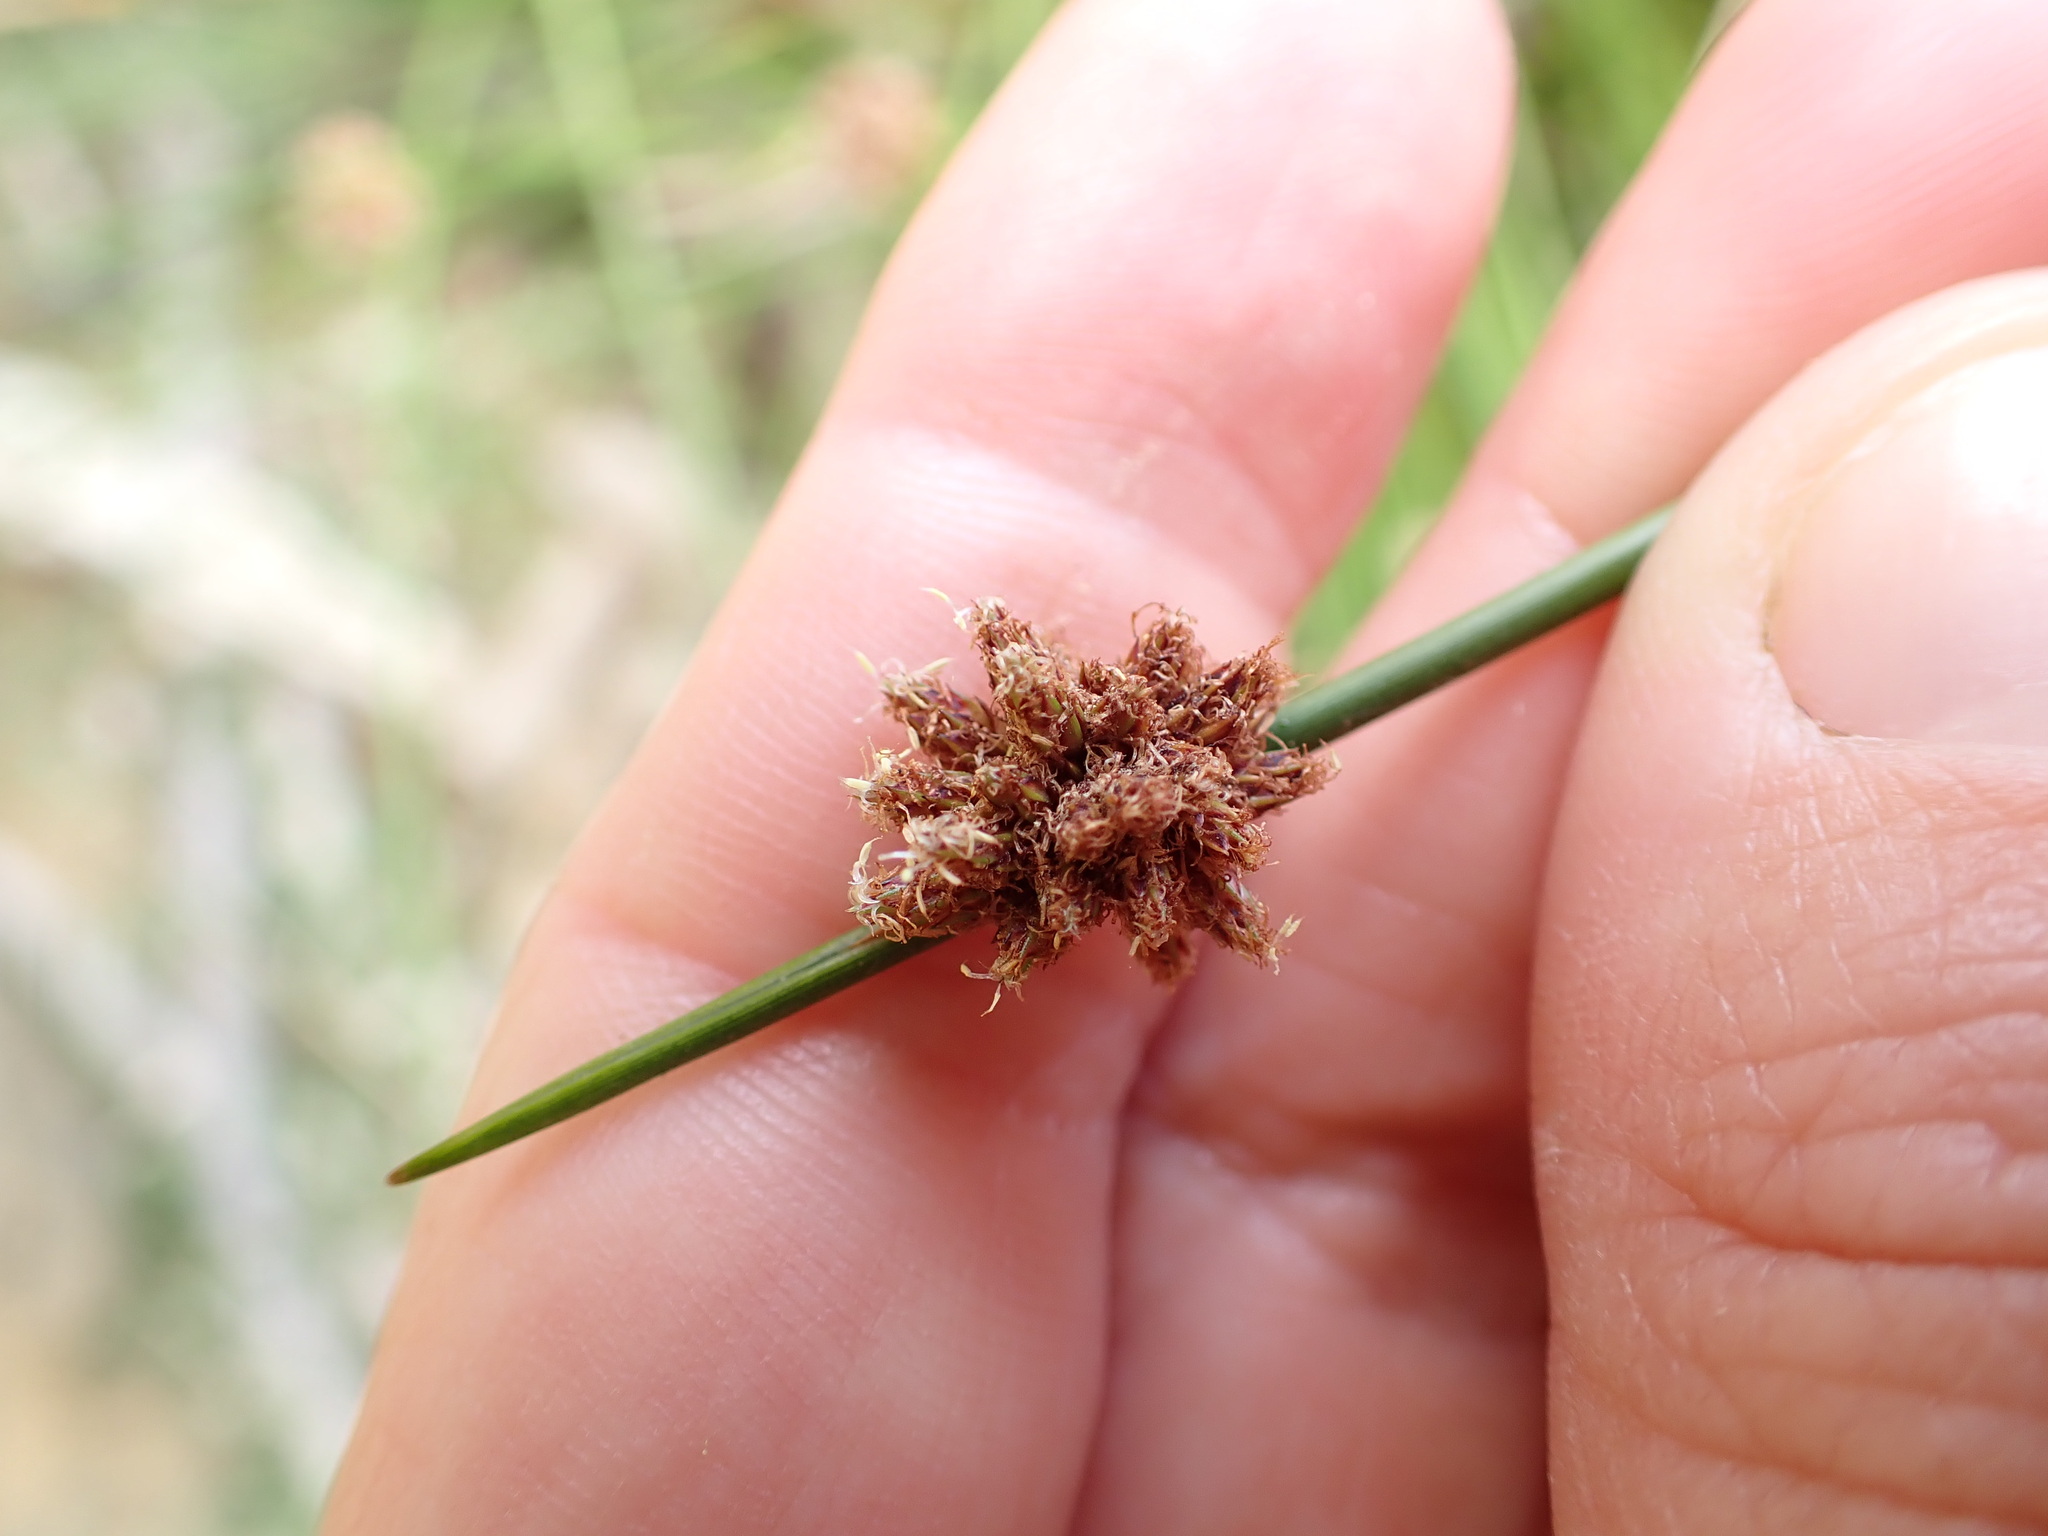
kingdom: Plantae
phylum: Tracheophyta
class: Liliopsida
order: Poales
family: Cyperaceae
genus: Ficinia
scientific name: Ficinia nodosa
